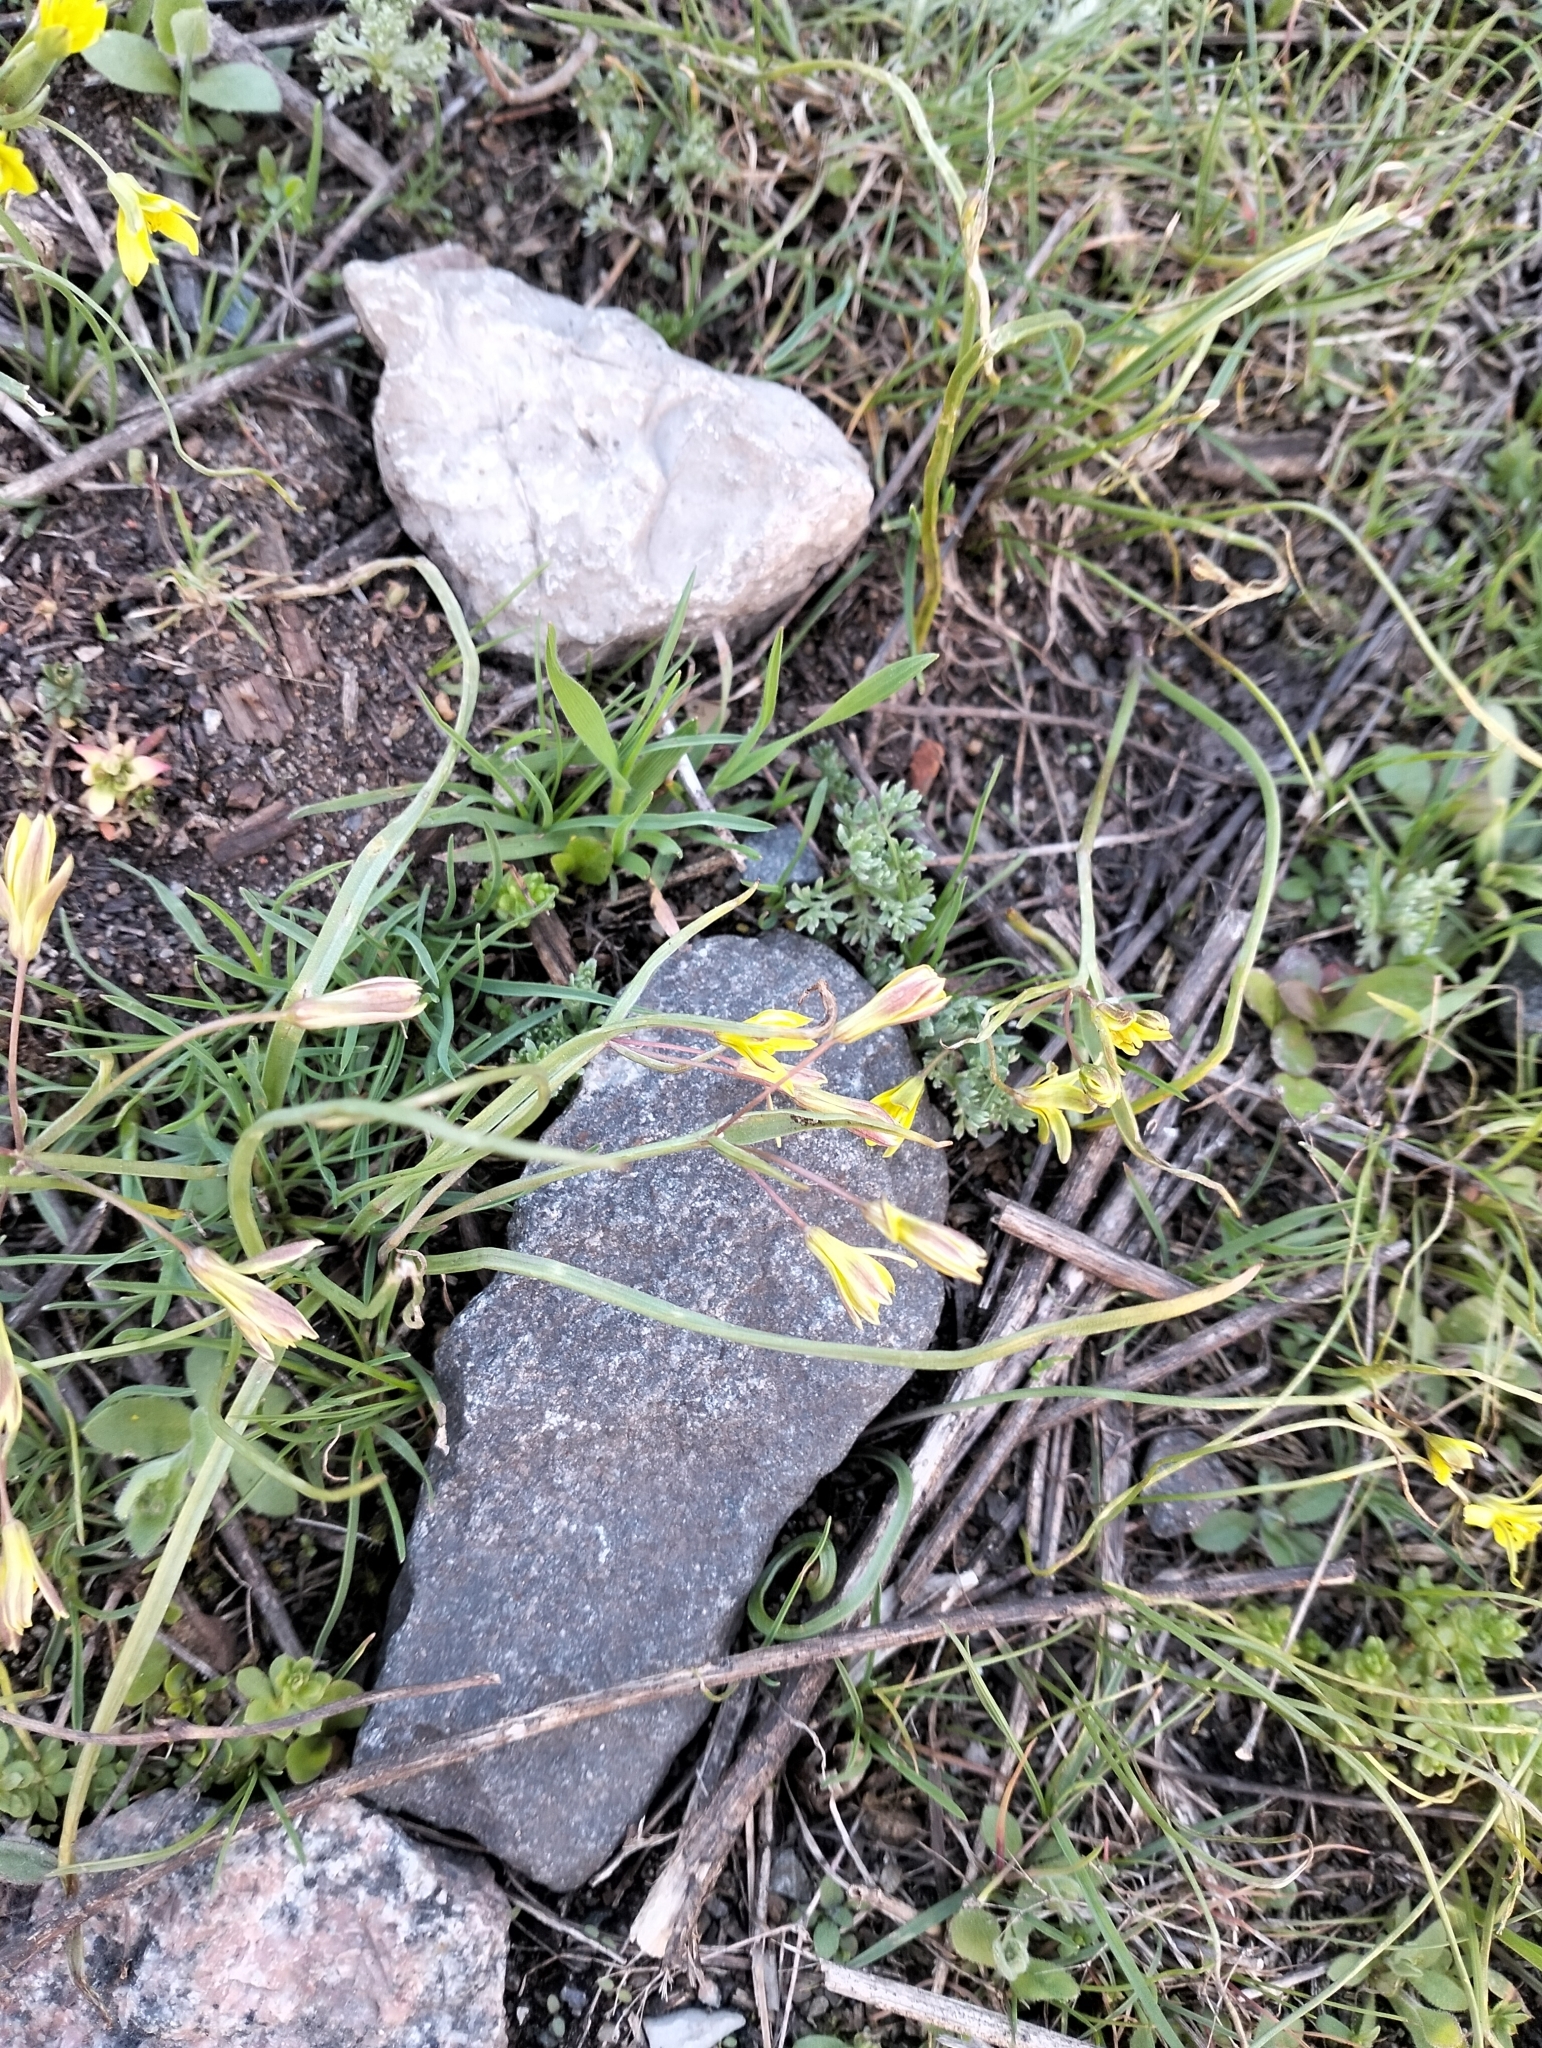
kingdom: Plantae
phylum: Tracheophyta
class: Liliopsida
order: Liliales
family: Liliaceae
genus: Gagea
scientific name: Gagea fragifera
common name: Lily
